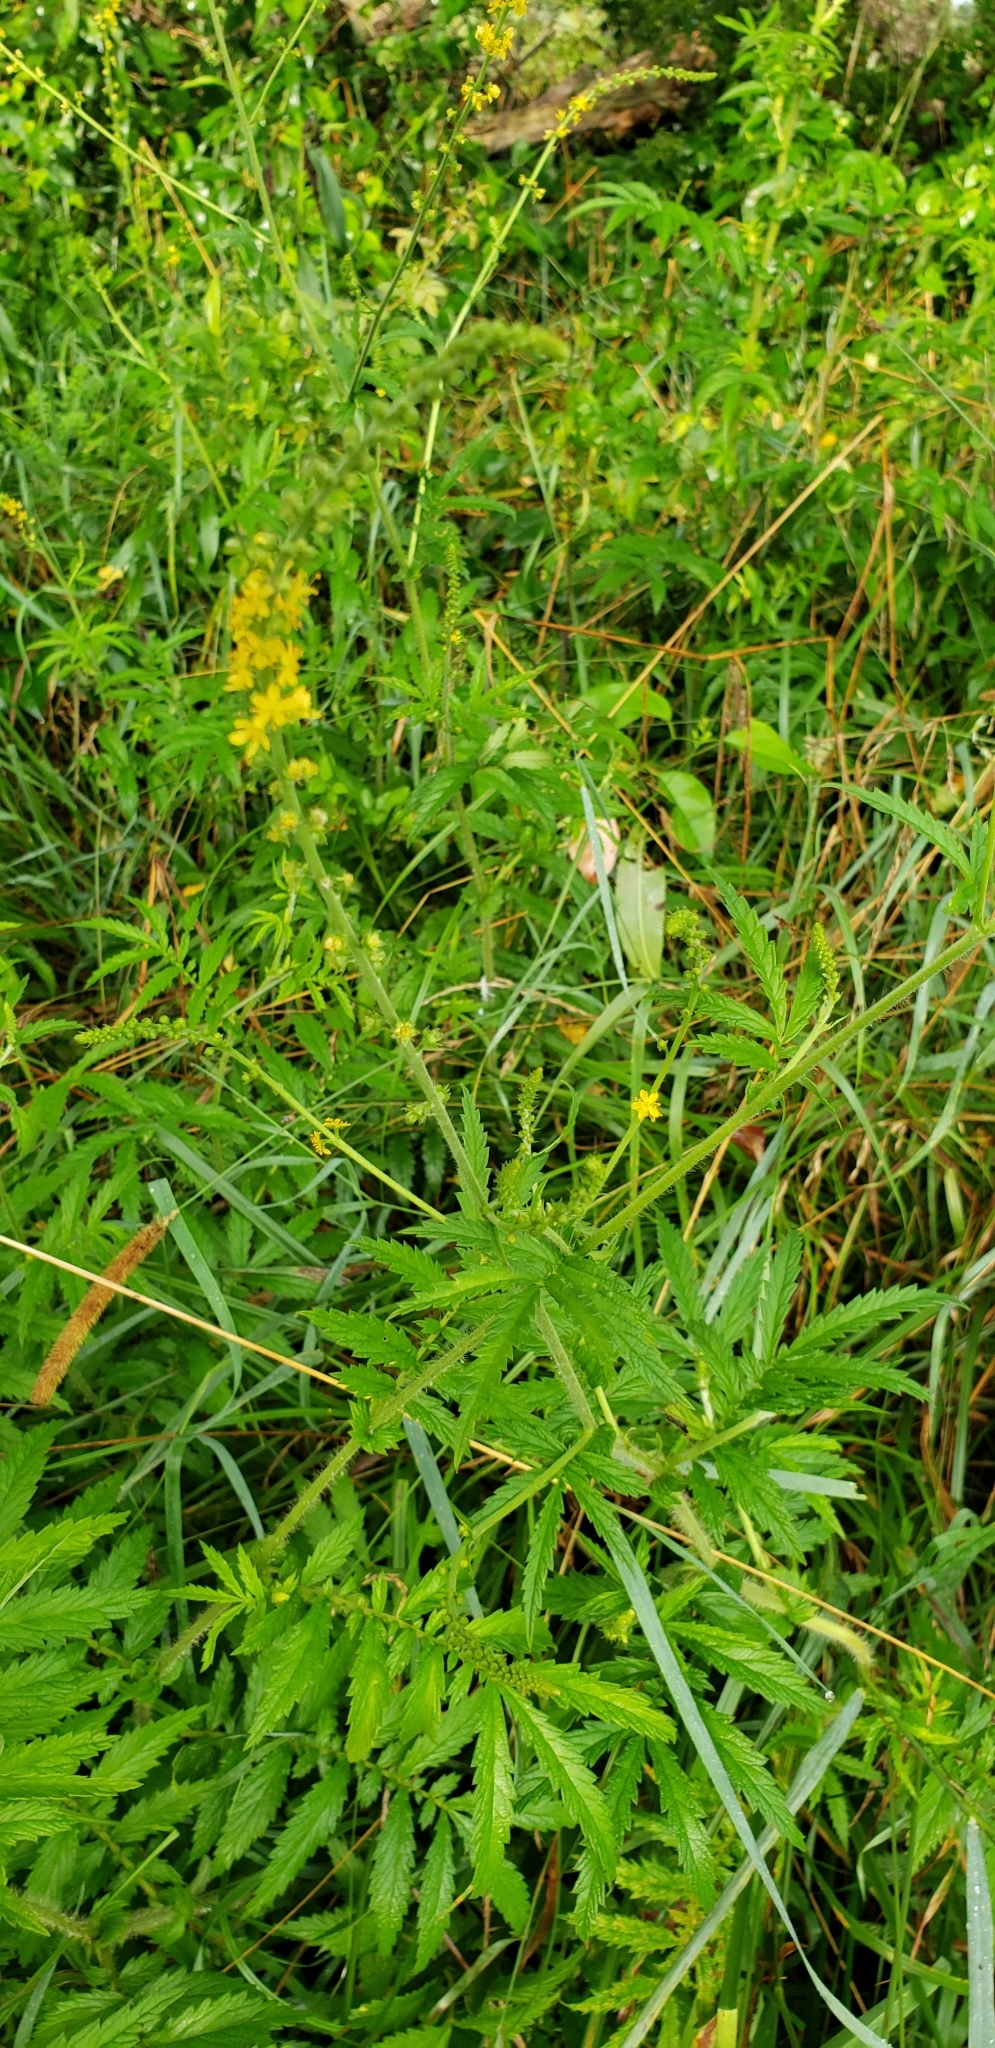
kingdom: Plantae
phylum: Tracheophyta
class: Magnoliopsida
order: Rosales
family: Rosaceae
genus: Agrimonia
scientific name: Agrimonia parviflora
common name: Harvest-lice
